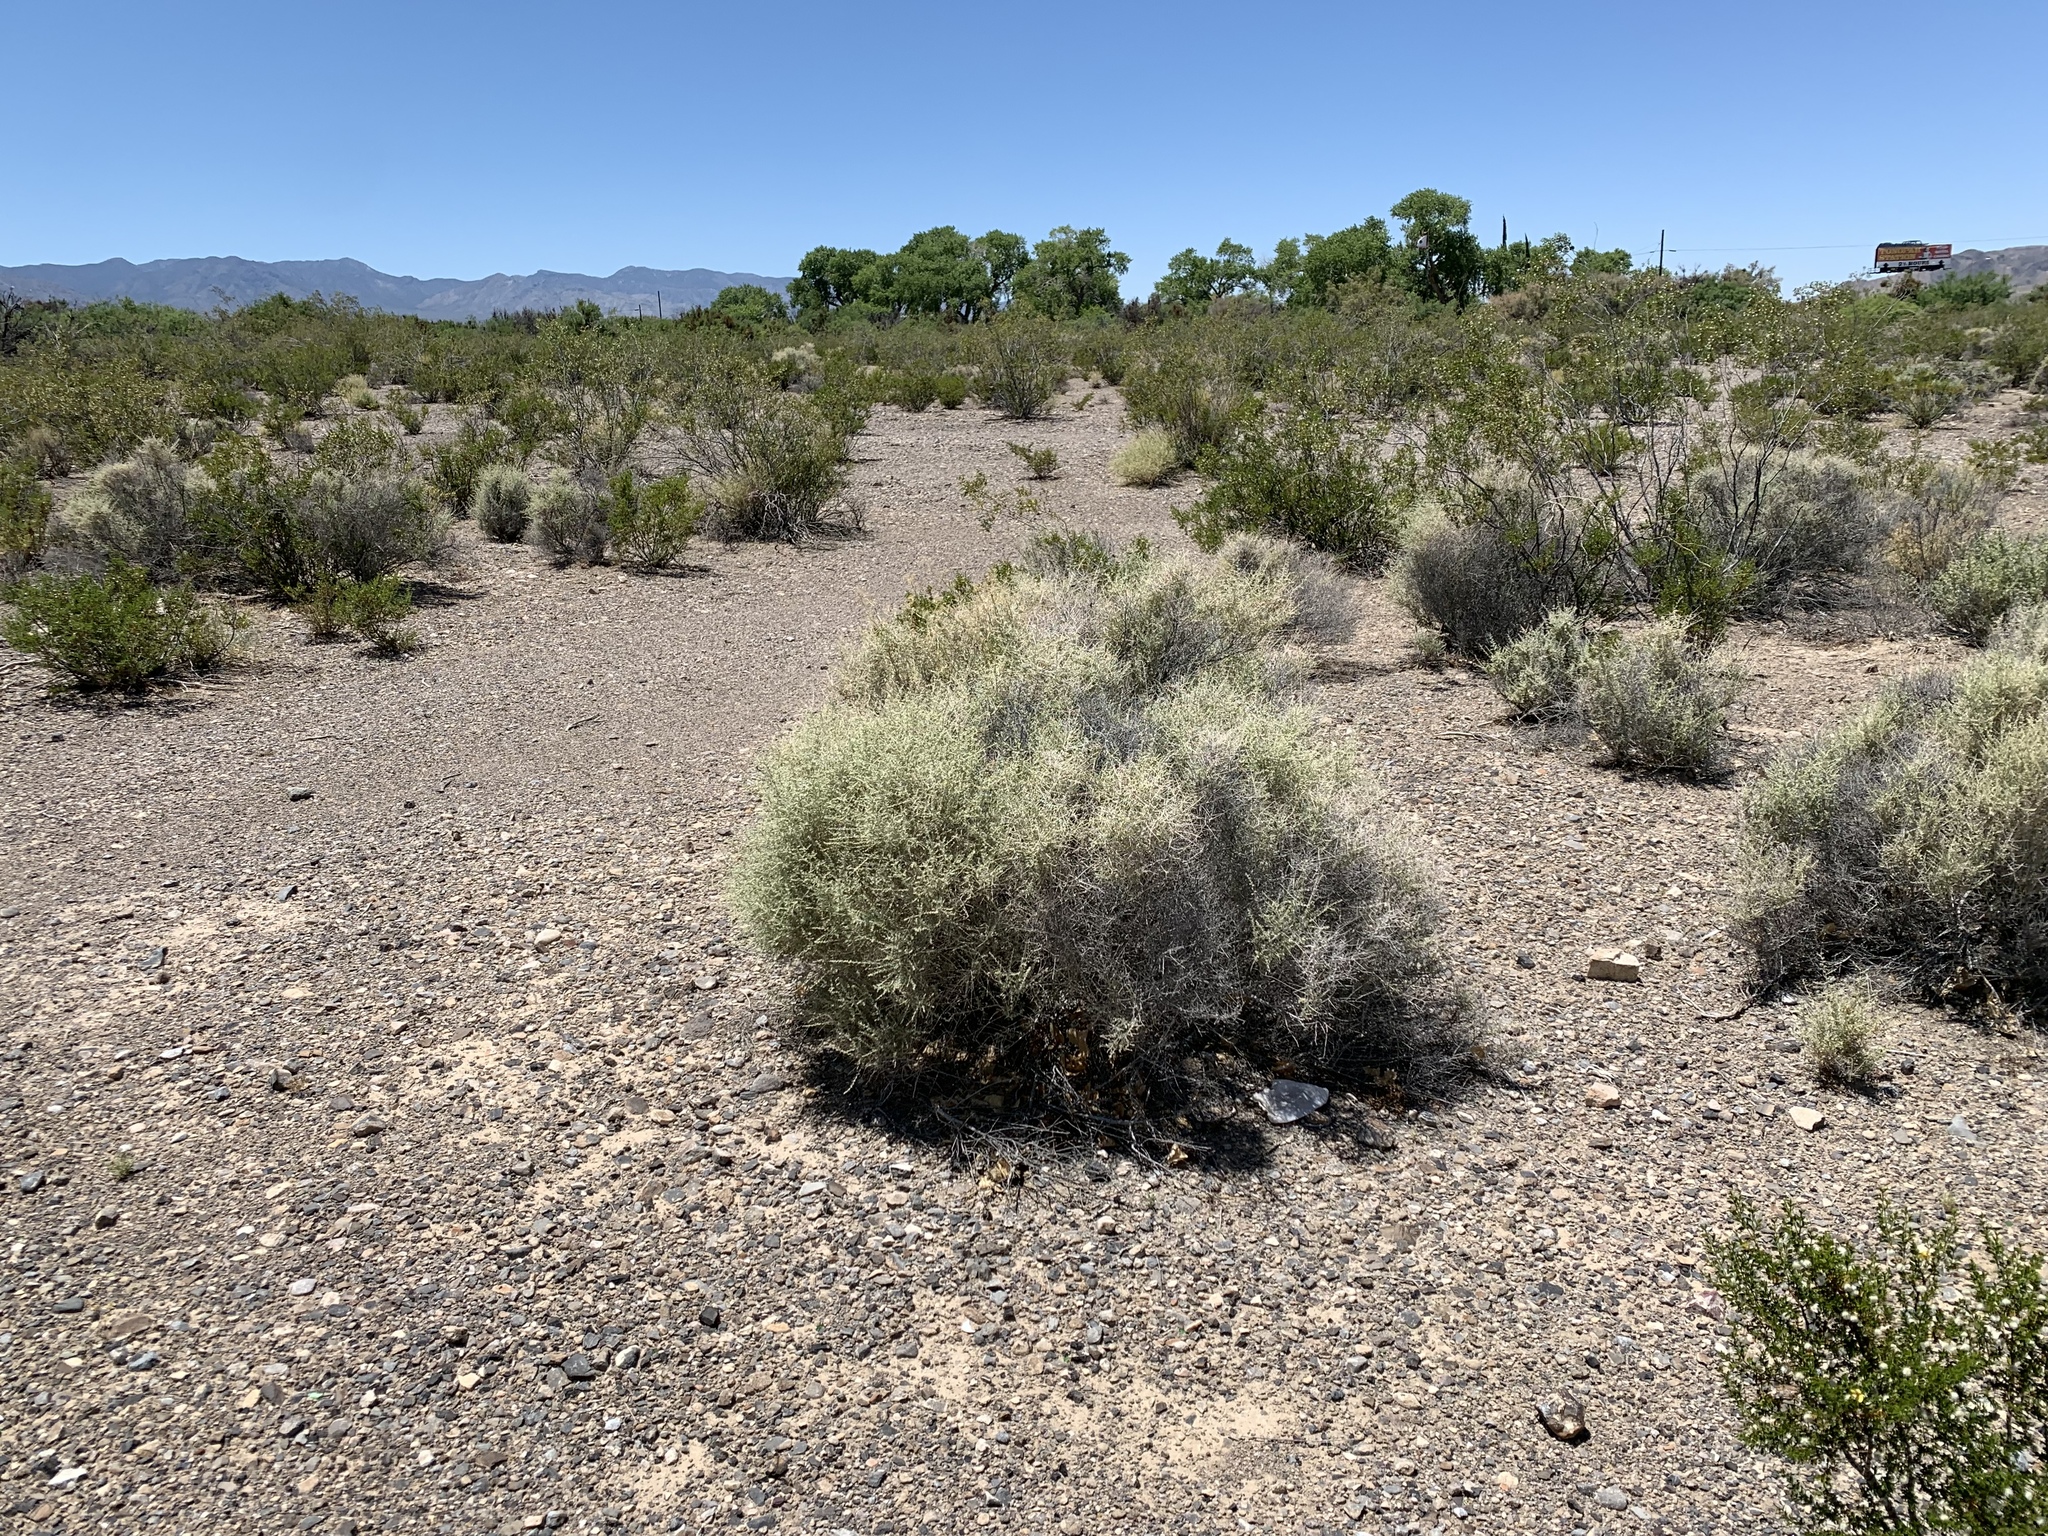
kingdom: Plantae
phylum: Tracheophyta
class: Magnoliopsida
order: Caryophyllales
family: Amaranthaceae
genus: Atriplex
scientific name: Atriplex polycarpa
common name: Desert saltbush
